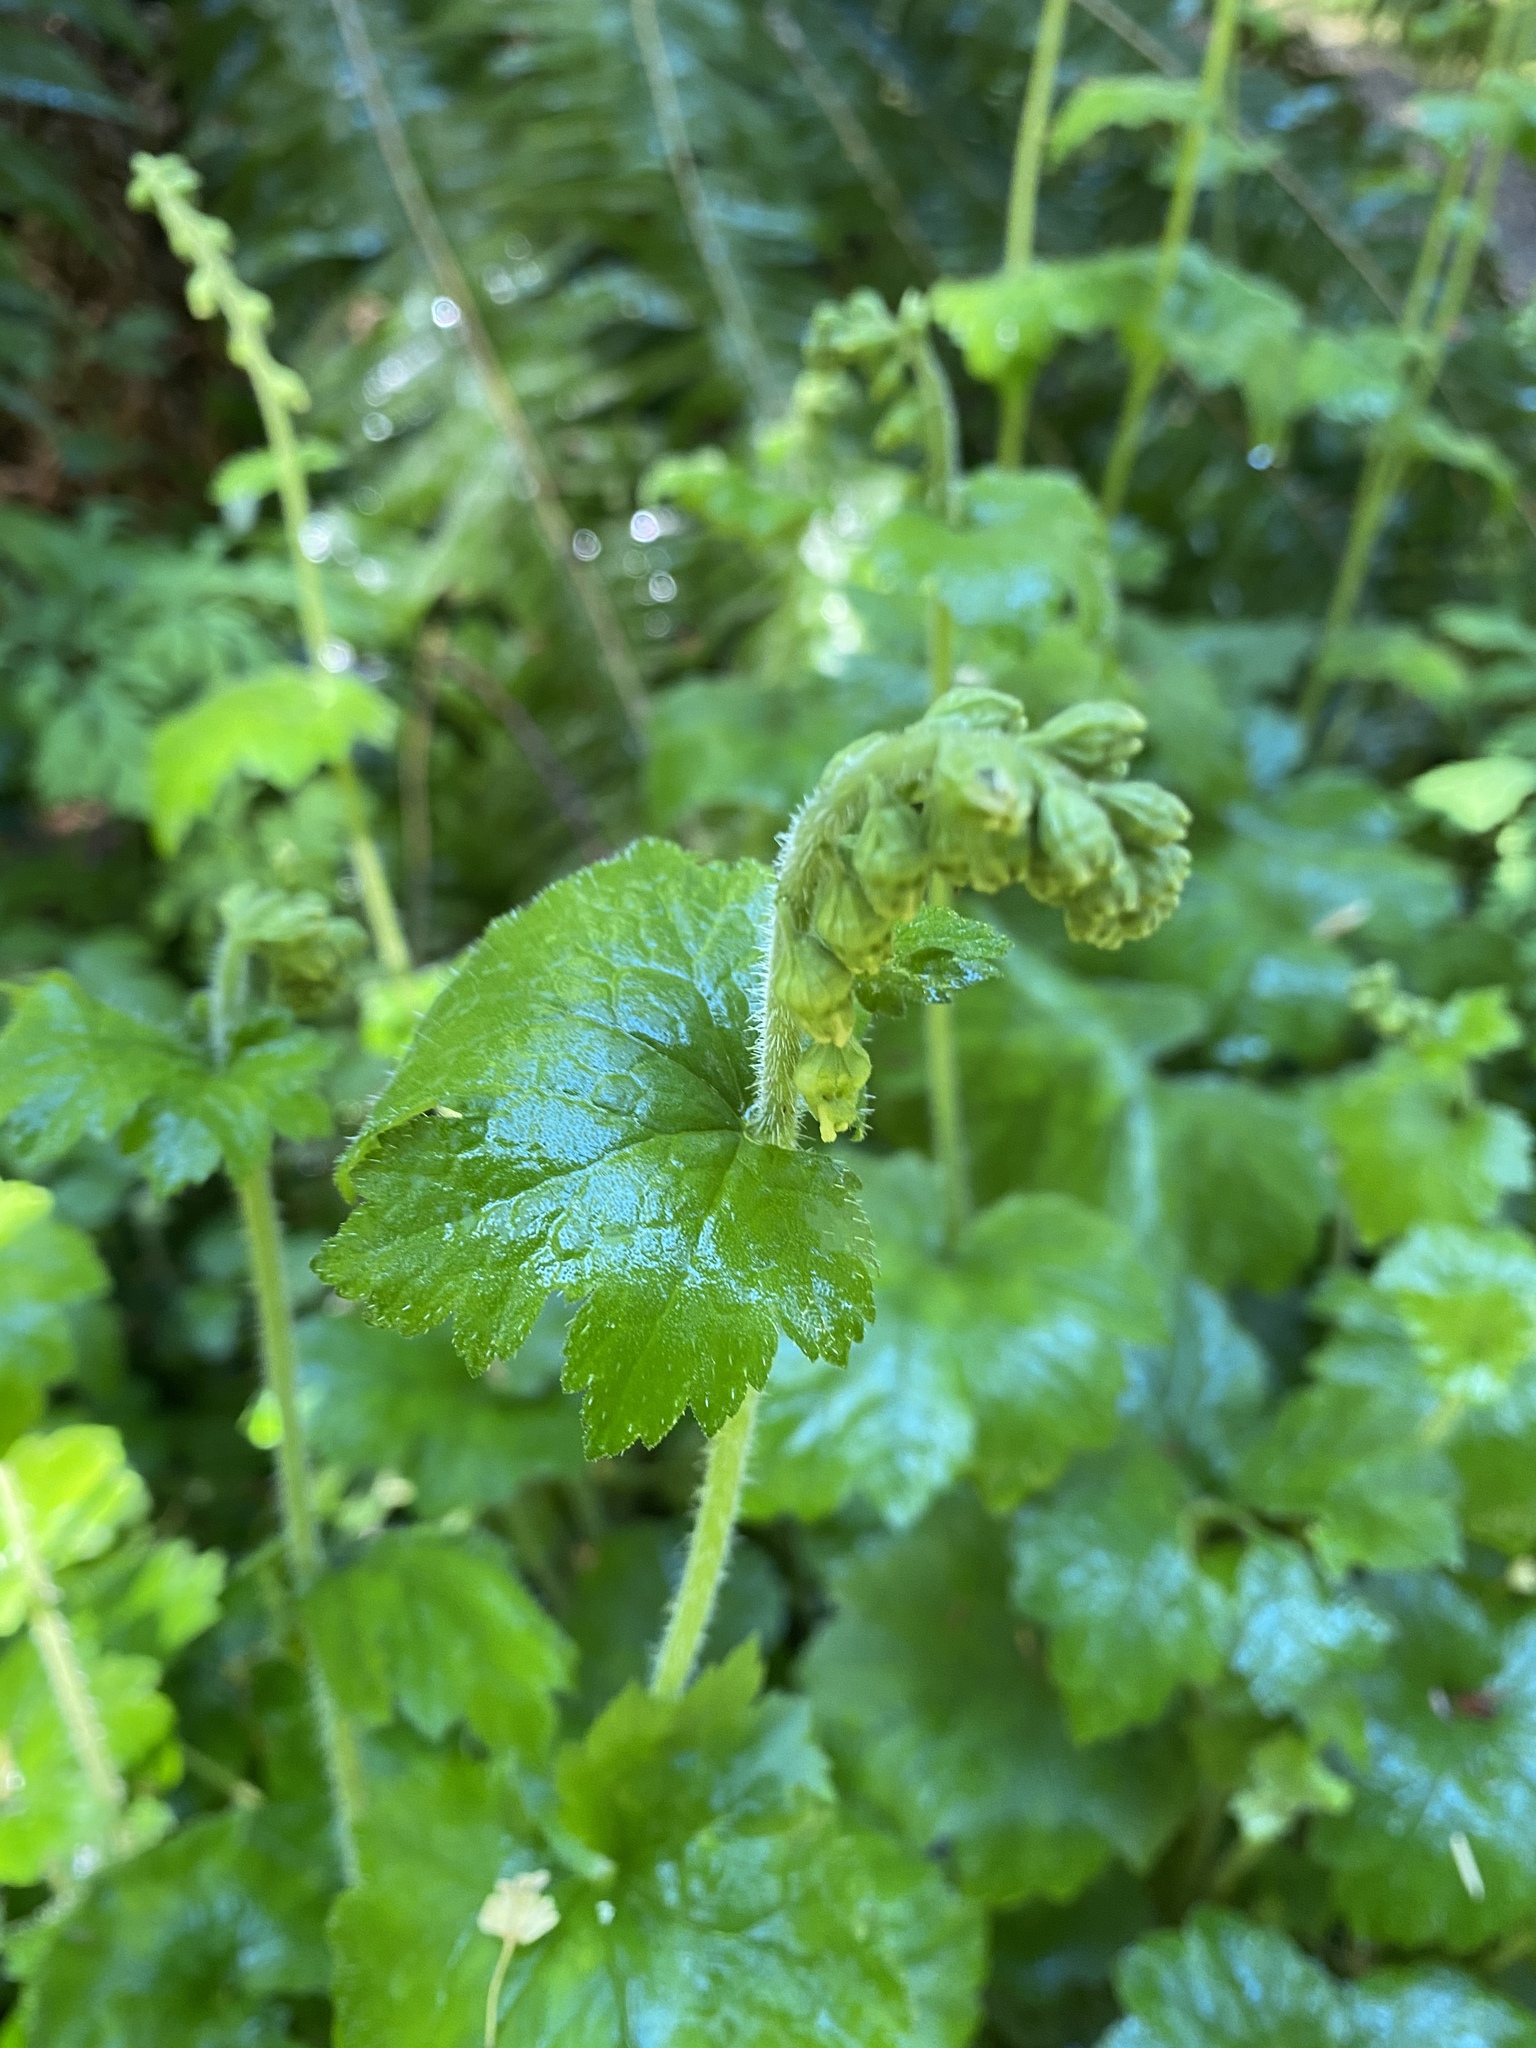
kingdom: Plantae
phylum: Tracheophyta
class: Magnoliopsida
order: Saxifragales
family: Saxifragaceae
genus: Tellima
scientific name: Tellima grandiflora
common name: Fringecups
